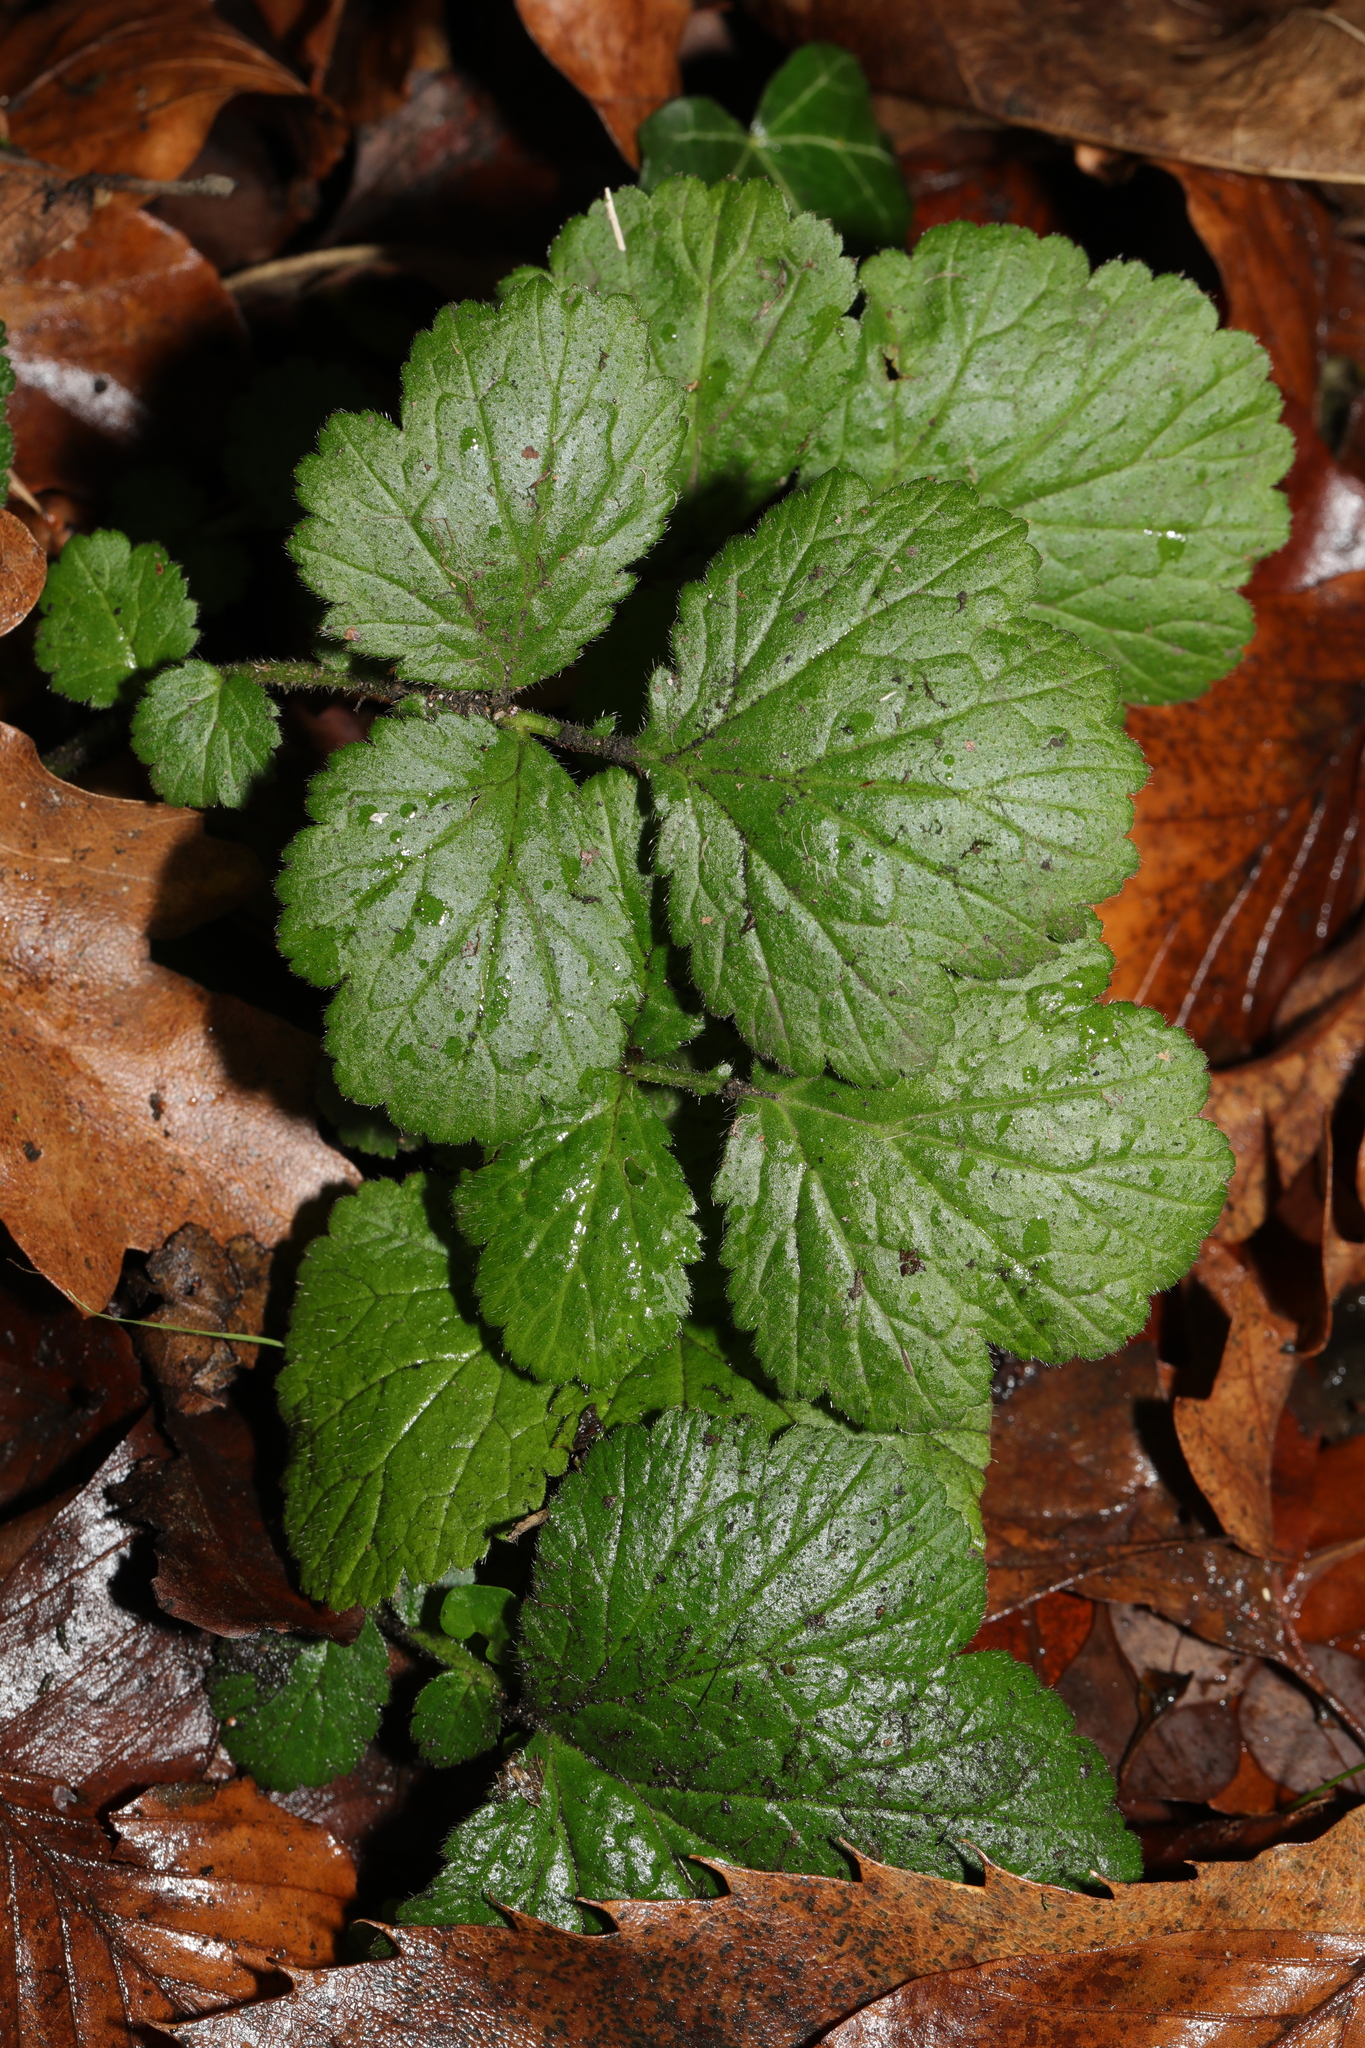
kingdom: Plantae
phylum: Tracheophyta
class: Magnoliopsida
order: Rosales
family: Rosaceae
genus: Geum
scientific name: Geum urbanum
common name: Wood avens
